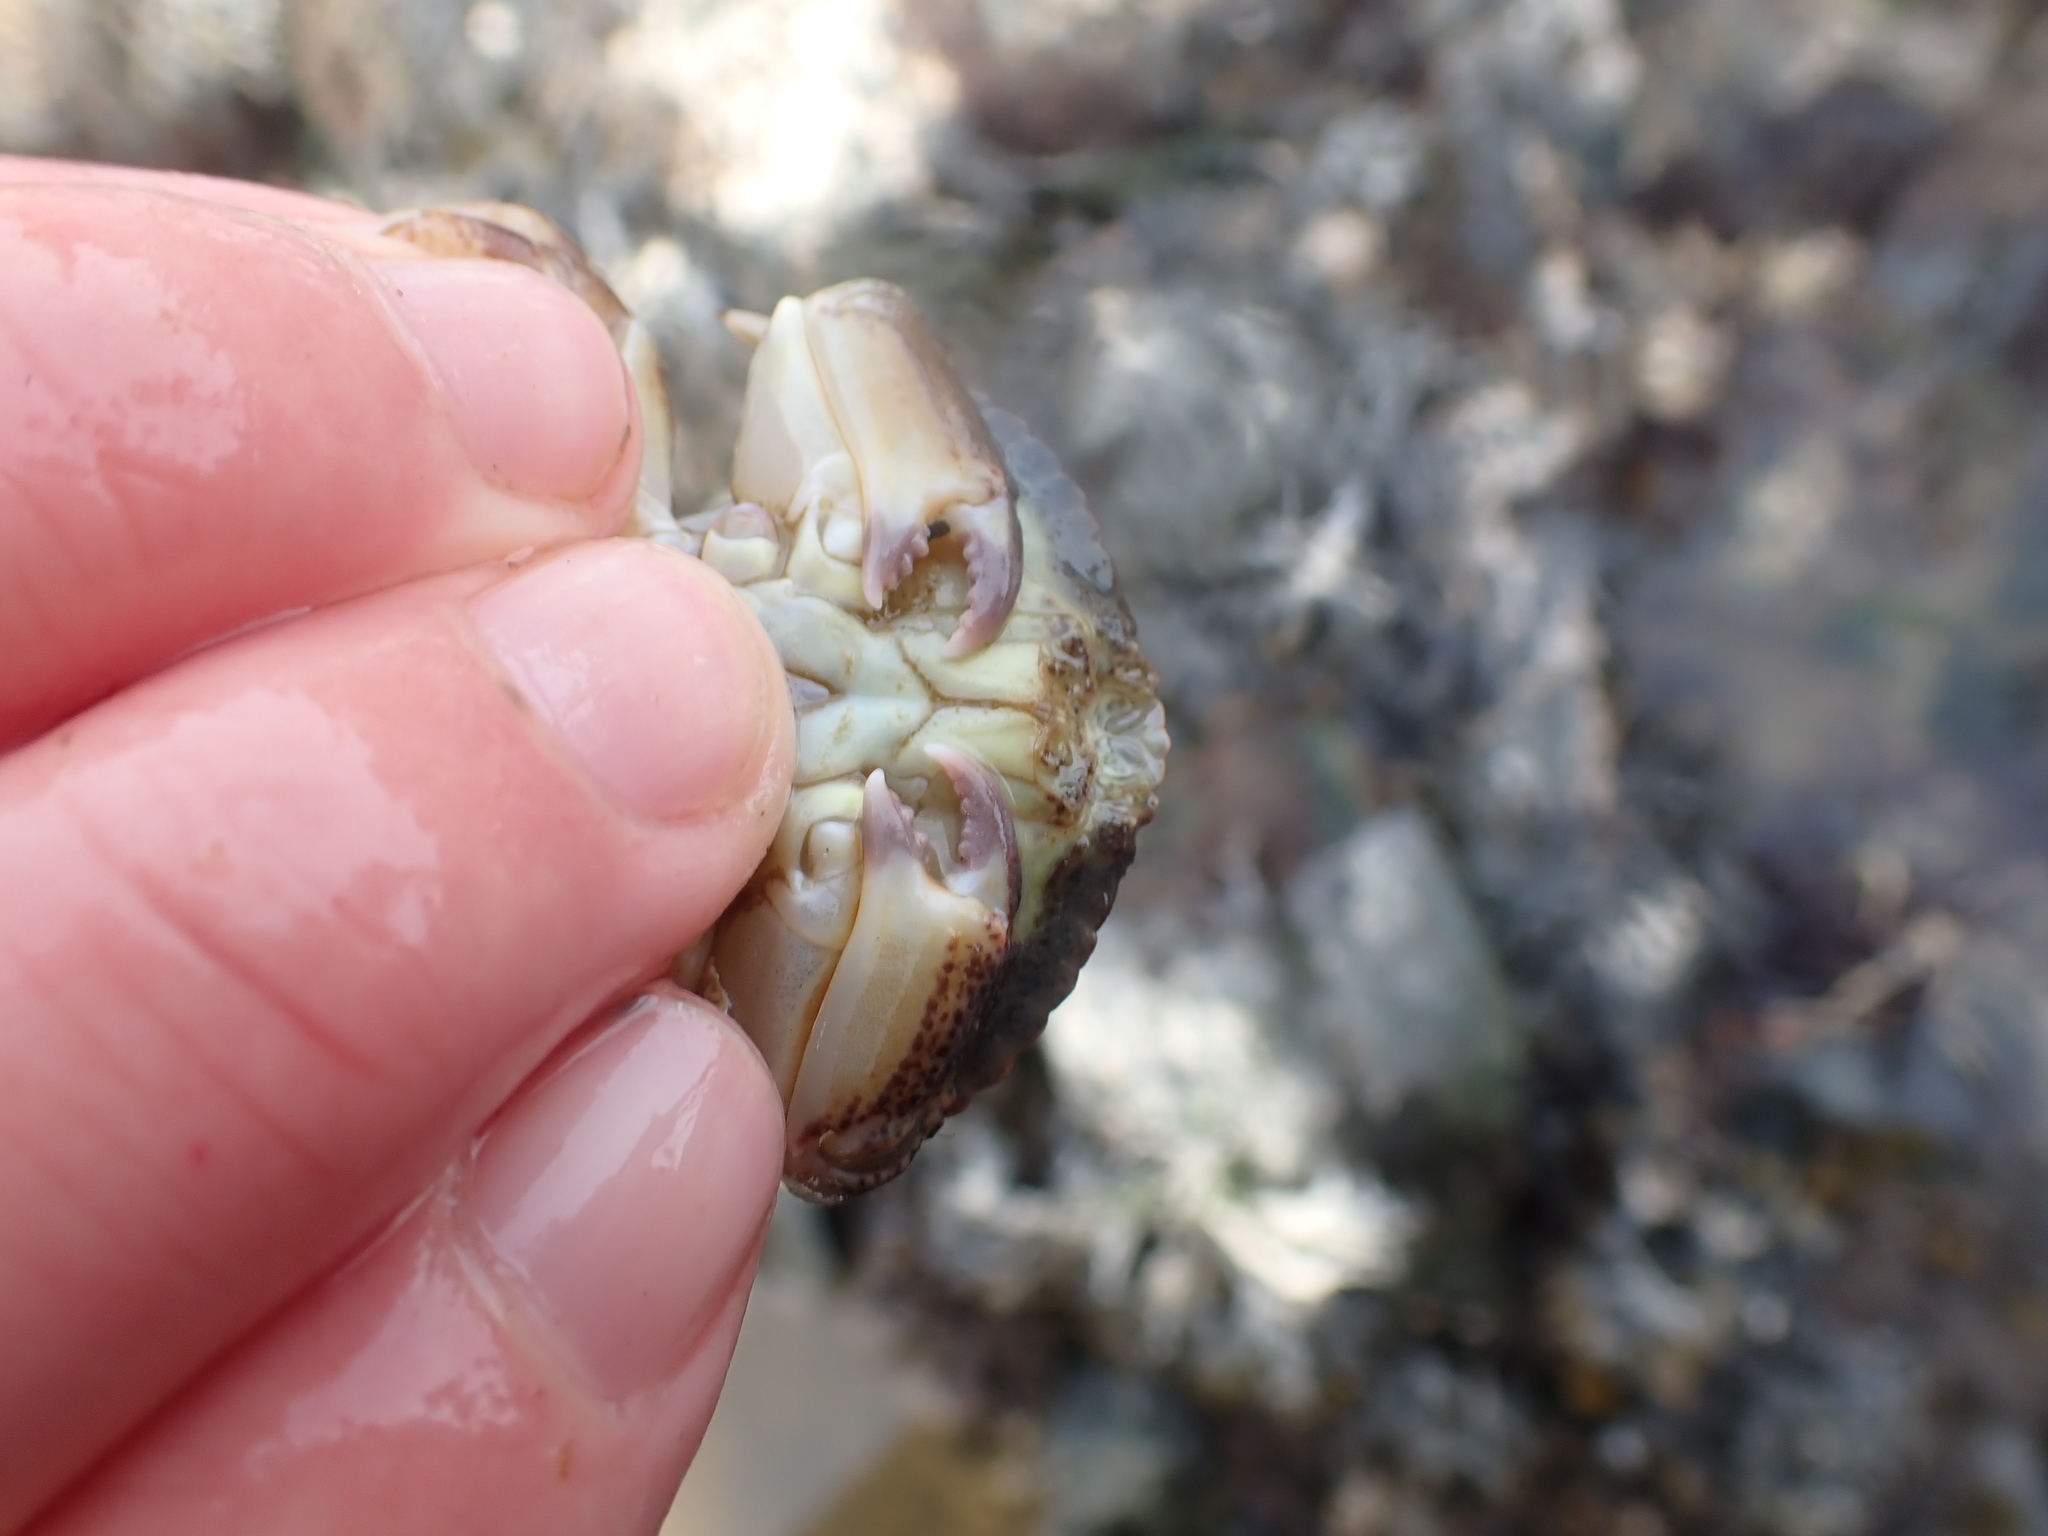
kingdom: Animalia
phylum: Arthropoda
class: Malacostraca
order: Decapoda
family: Cancridae
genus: Cancer
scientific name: Cancer productus
